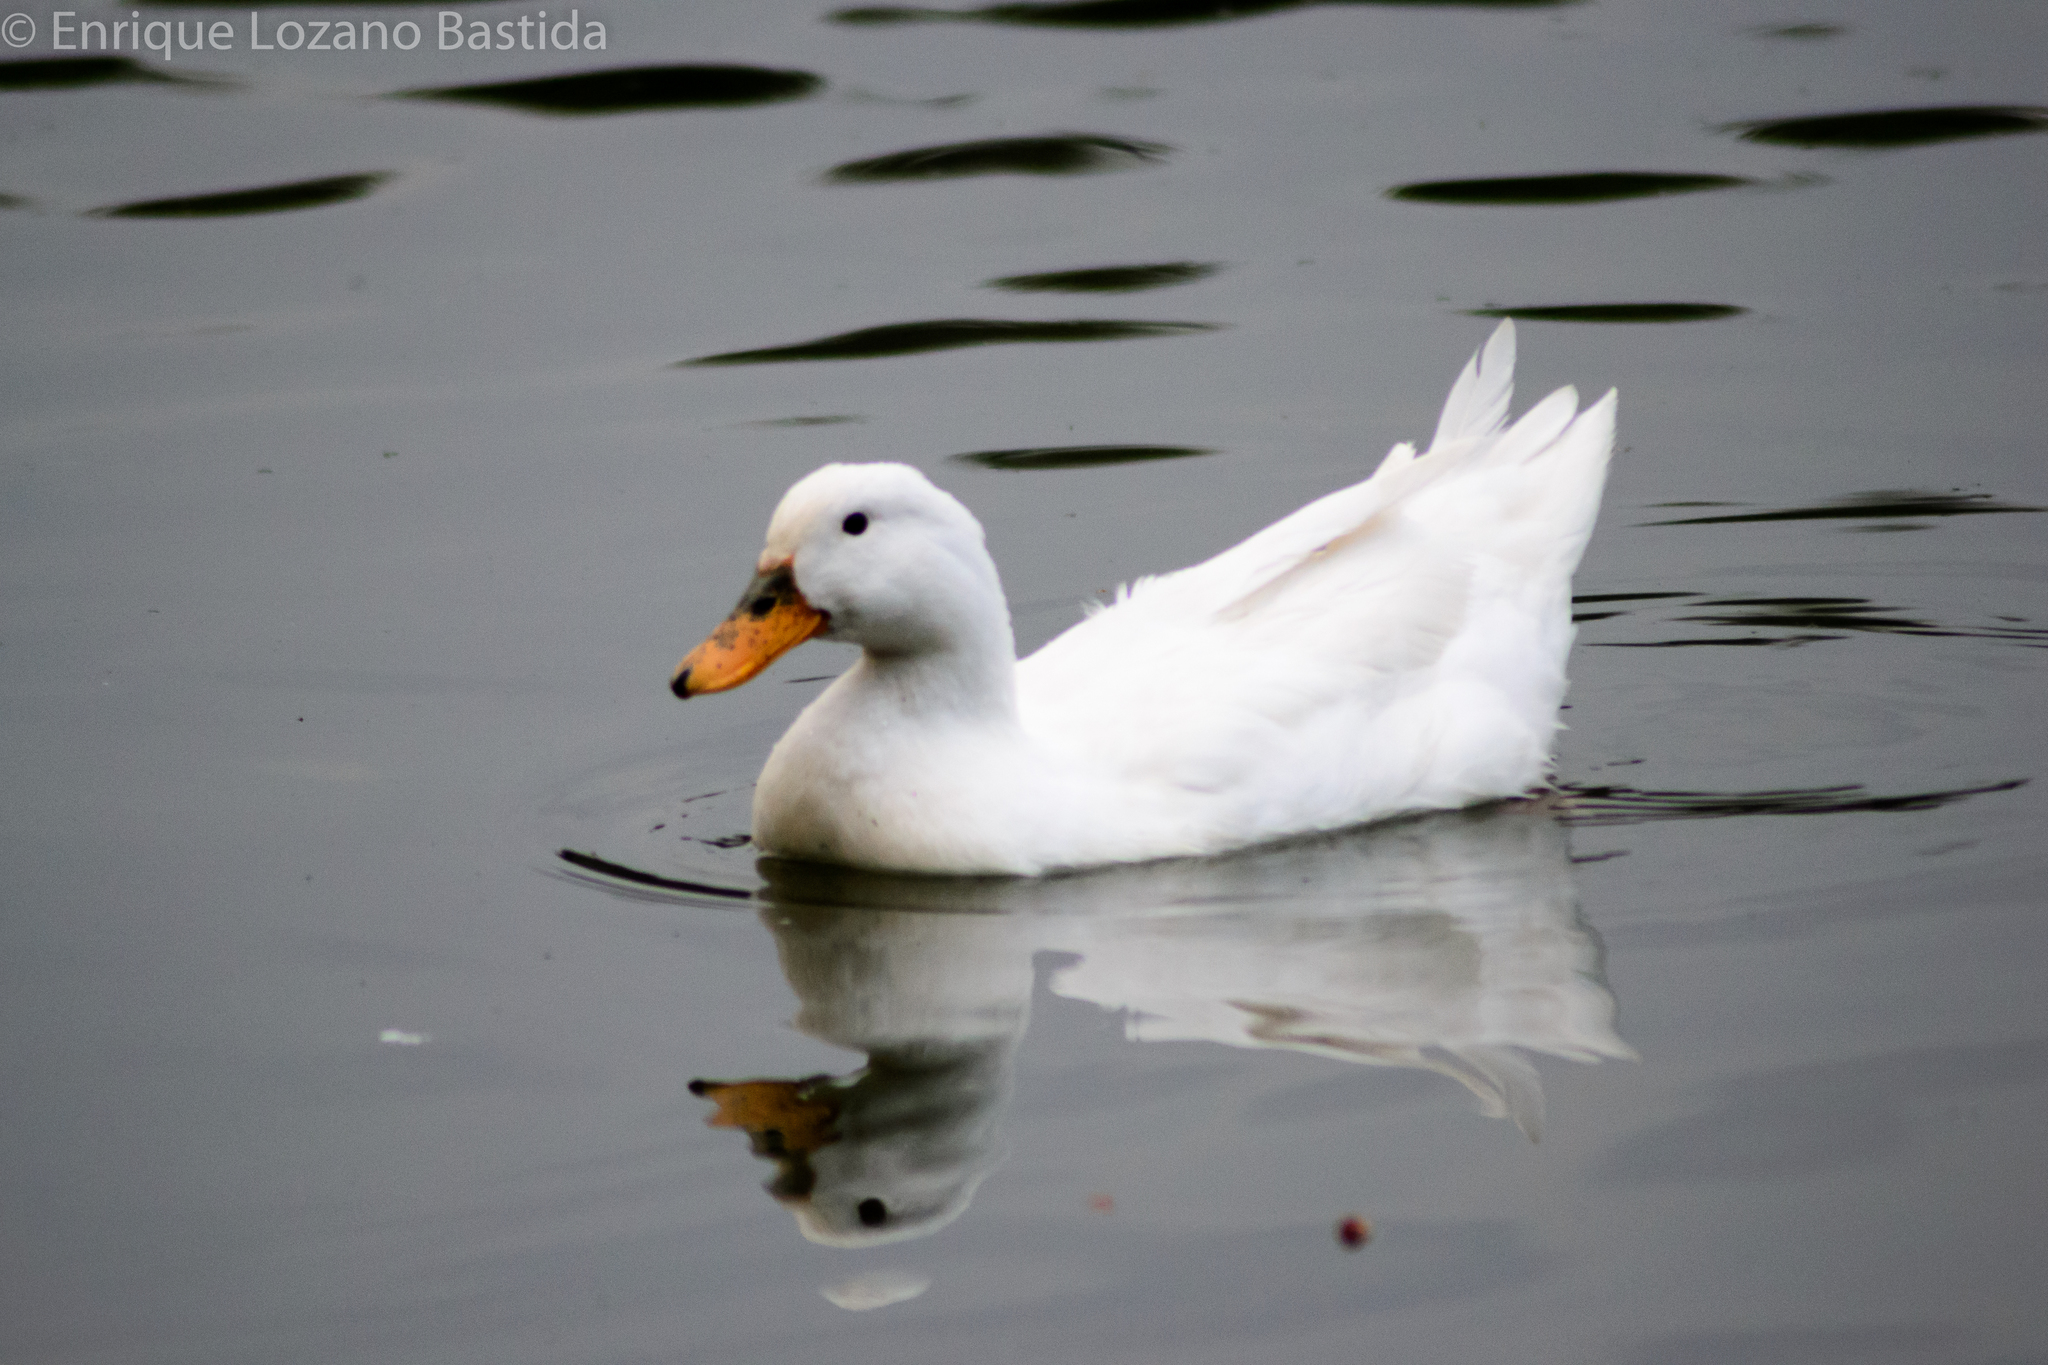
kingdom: Animalia
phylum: Chordata
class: Aves
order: Anseriformes
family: Anatidae
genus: Anas
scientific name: Anas platyrhynchos
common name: Mallard
